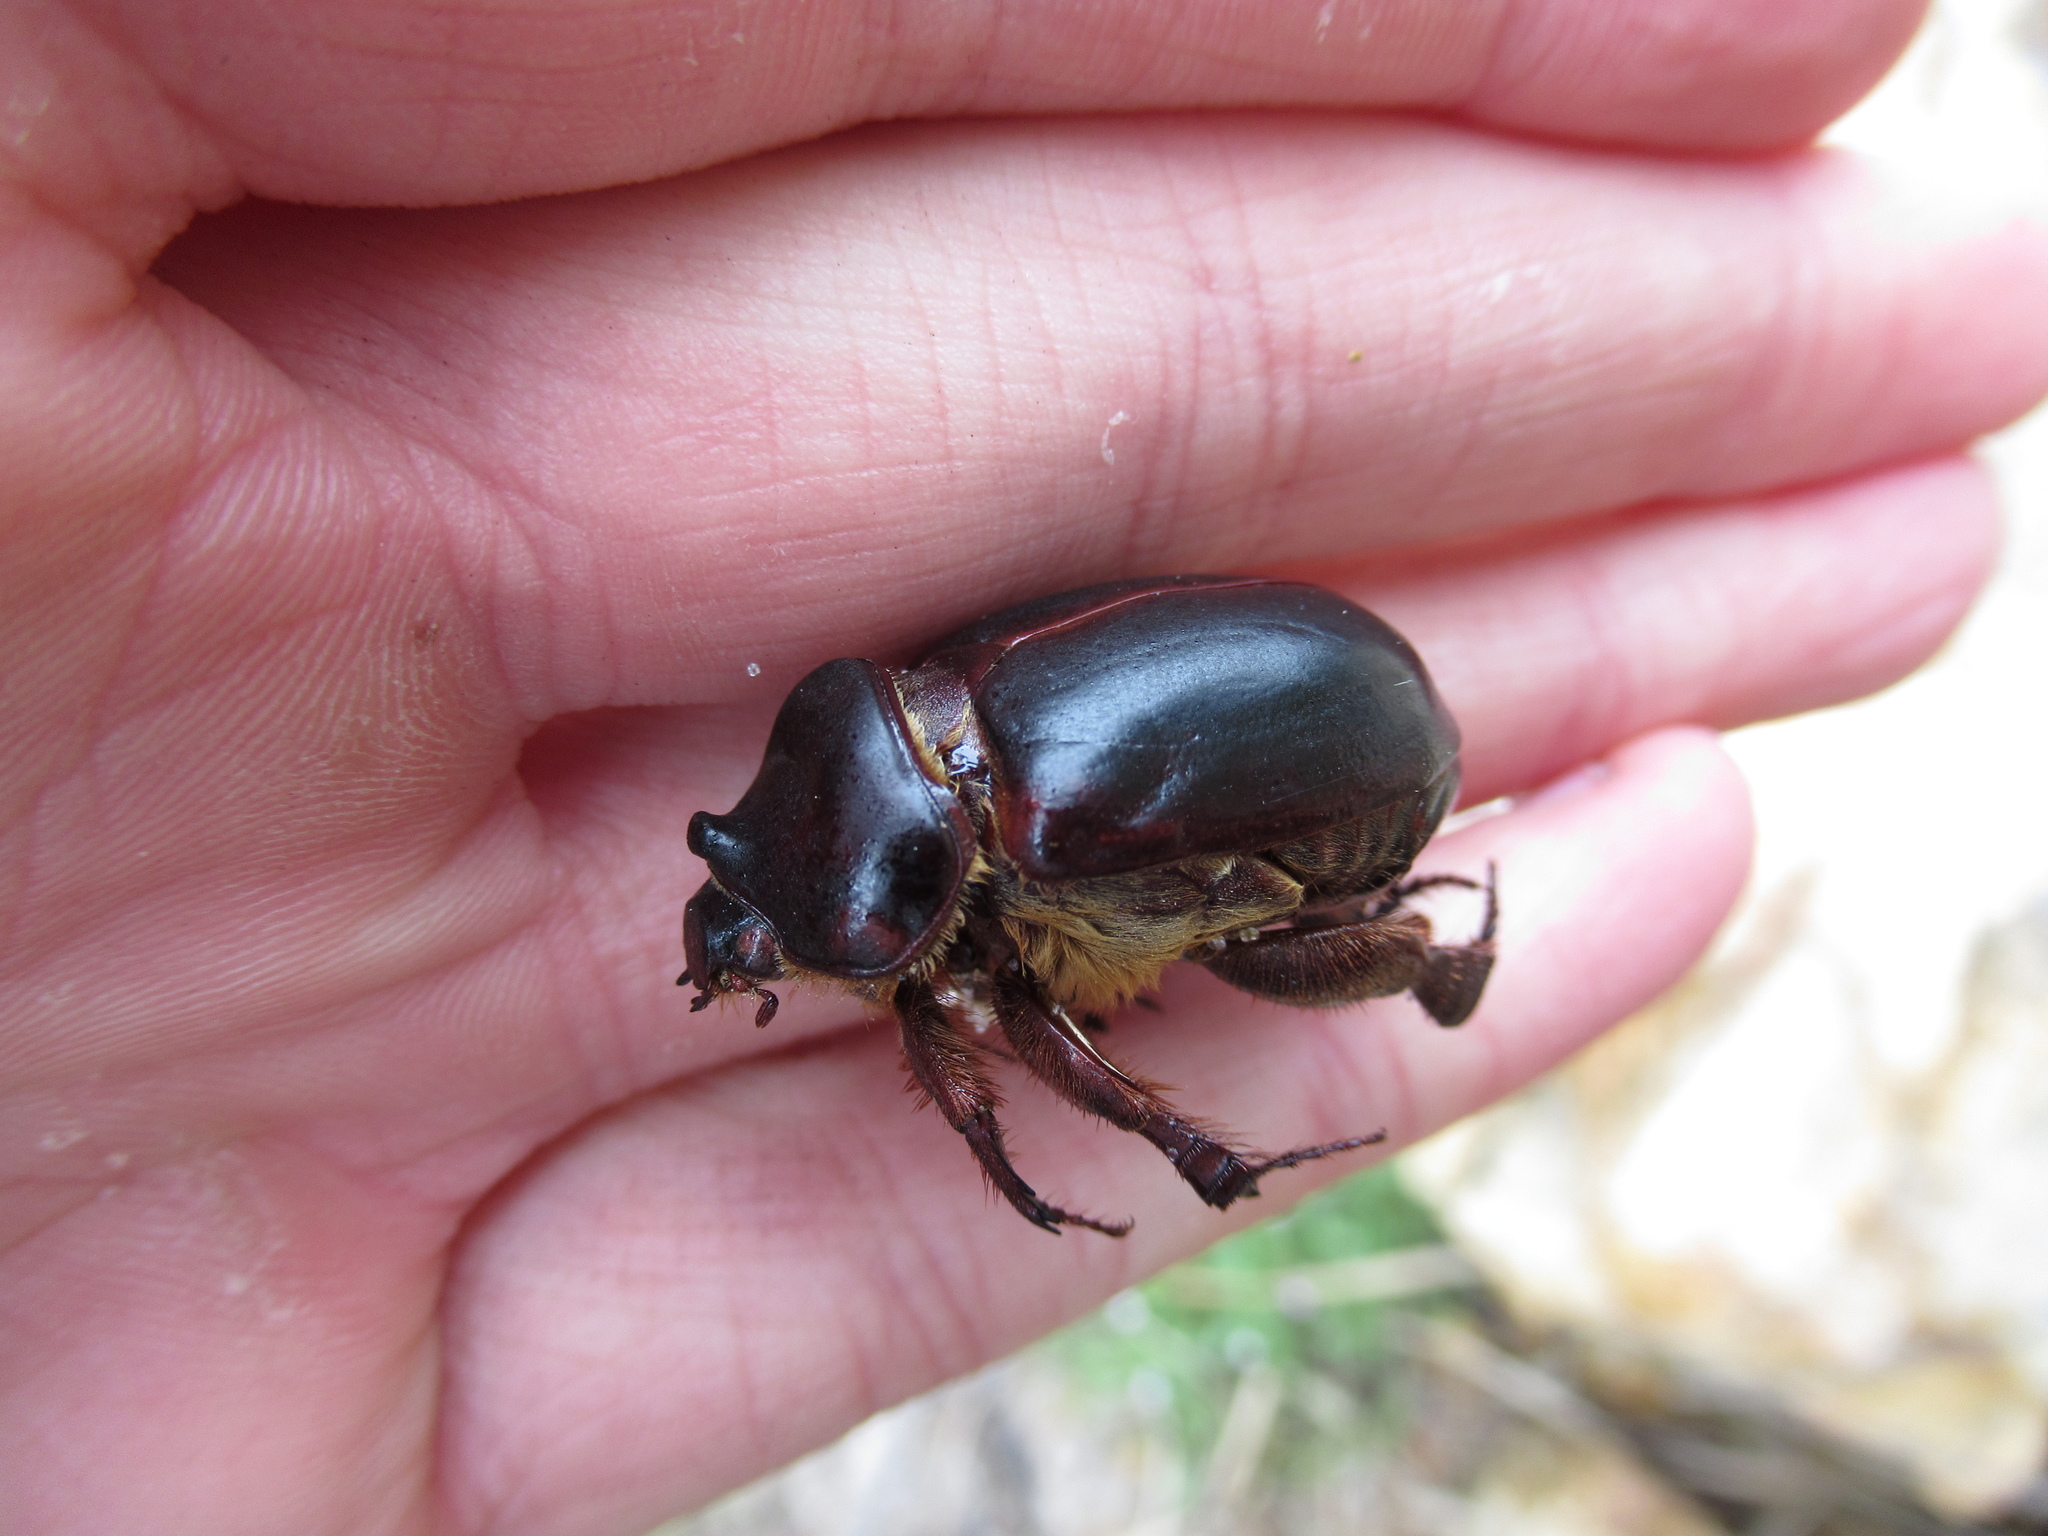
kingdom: Animalia
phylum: Arthropoda
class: Insecta
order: Coleoptera
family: Scarabaeidae
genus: Pericoptus
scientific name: Pericoptus truncatus
